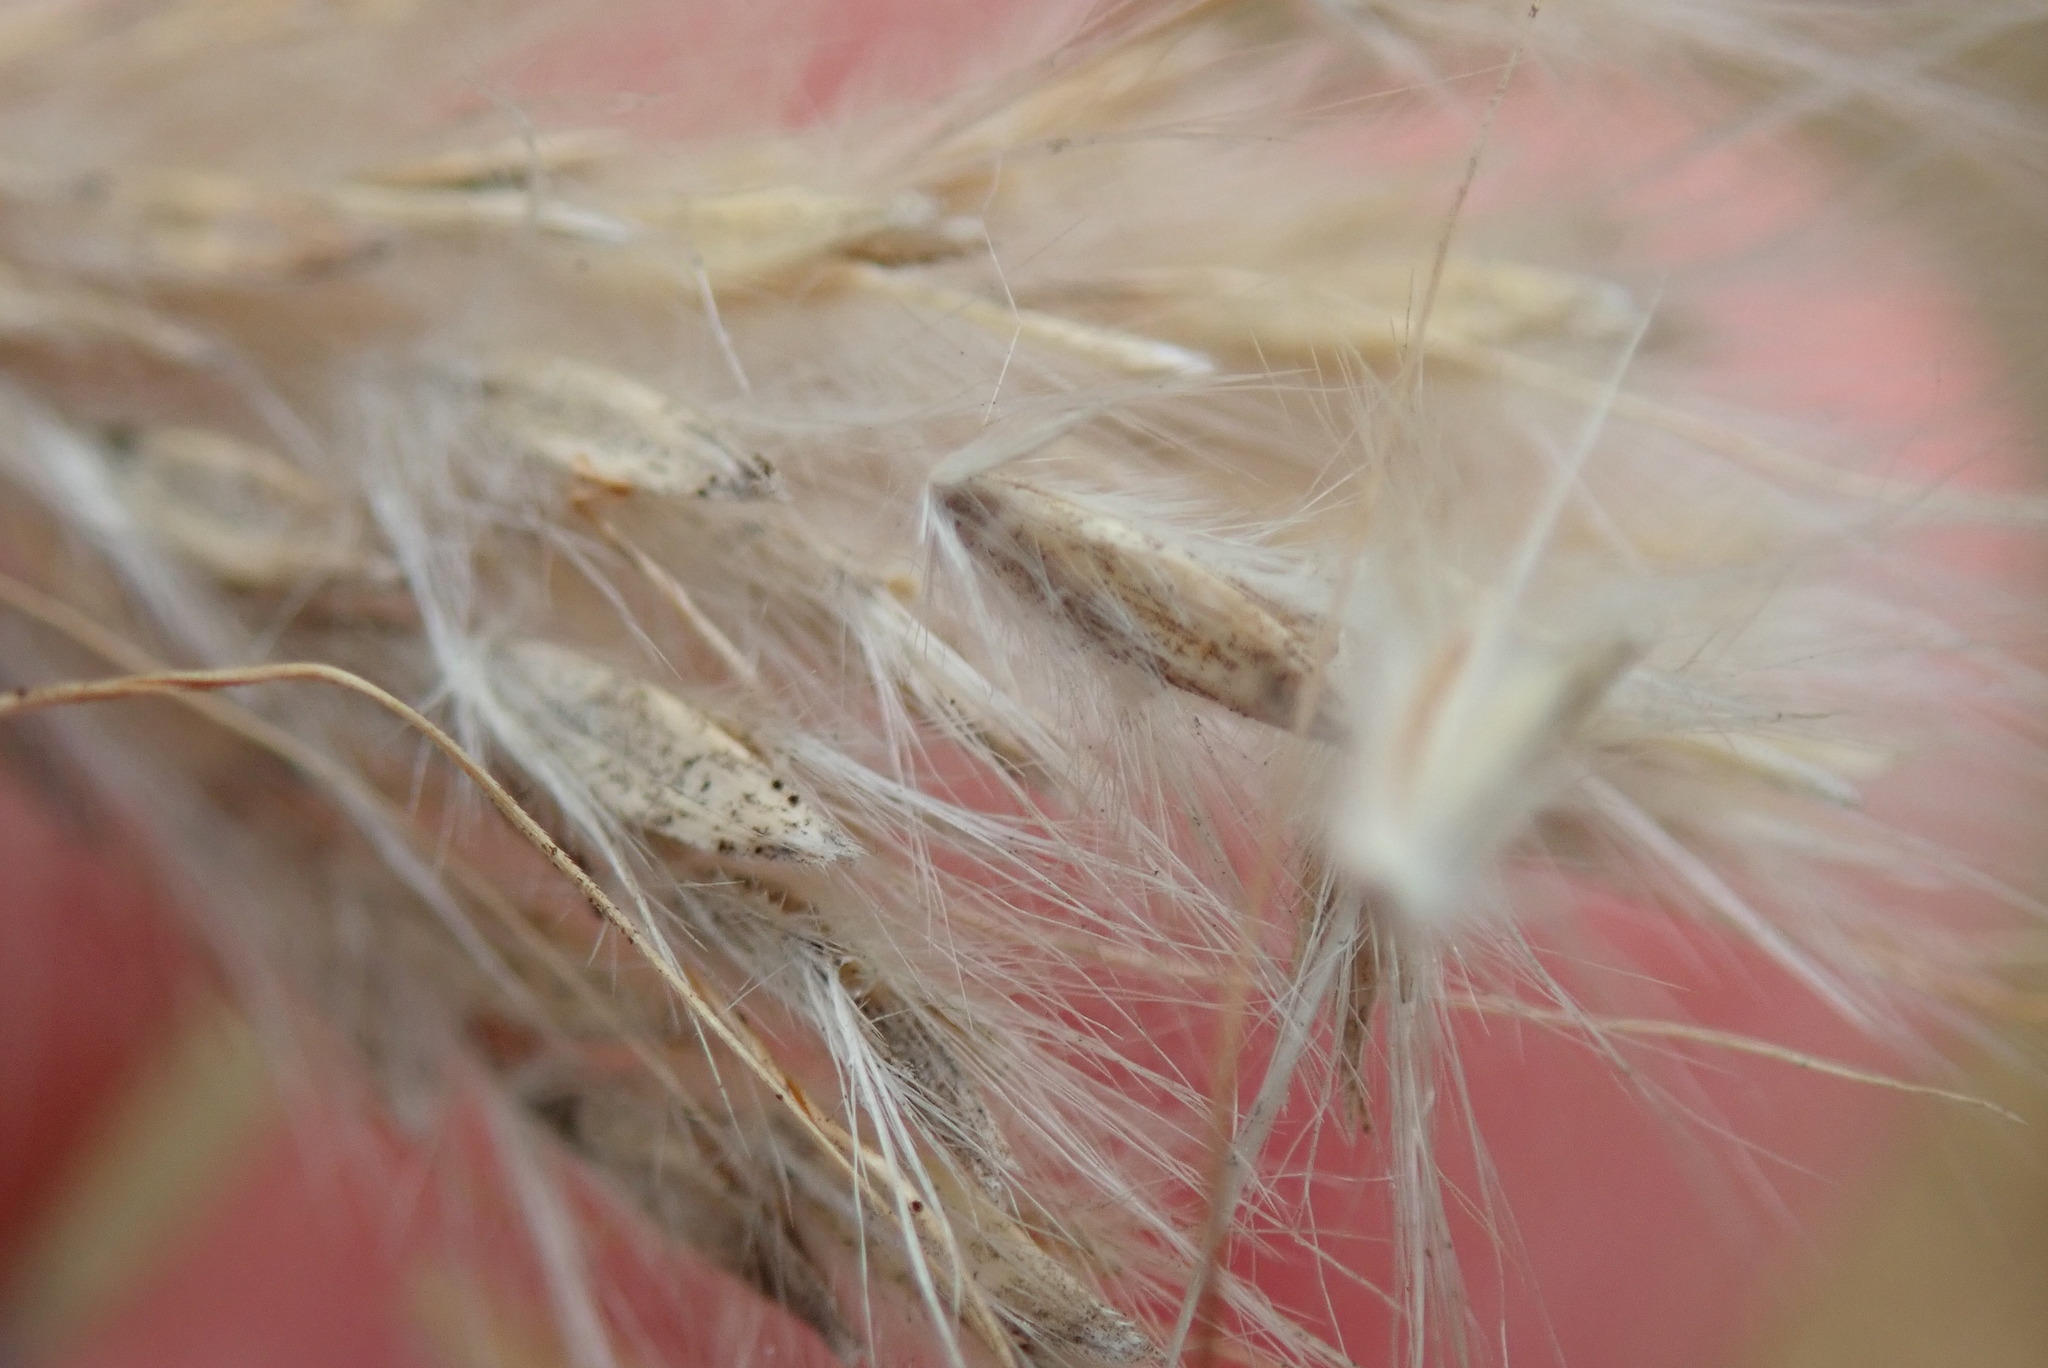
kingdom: Plantae
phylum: Tracheophyta
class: Liliopsida
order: Poales
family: Poaceae
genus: Bothriochloa
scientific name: Bothriochloa barbinodis
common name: Cane bluestem
